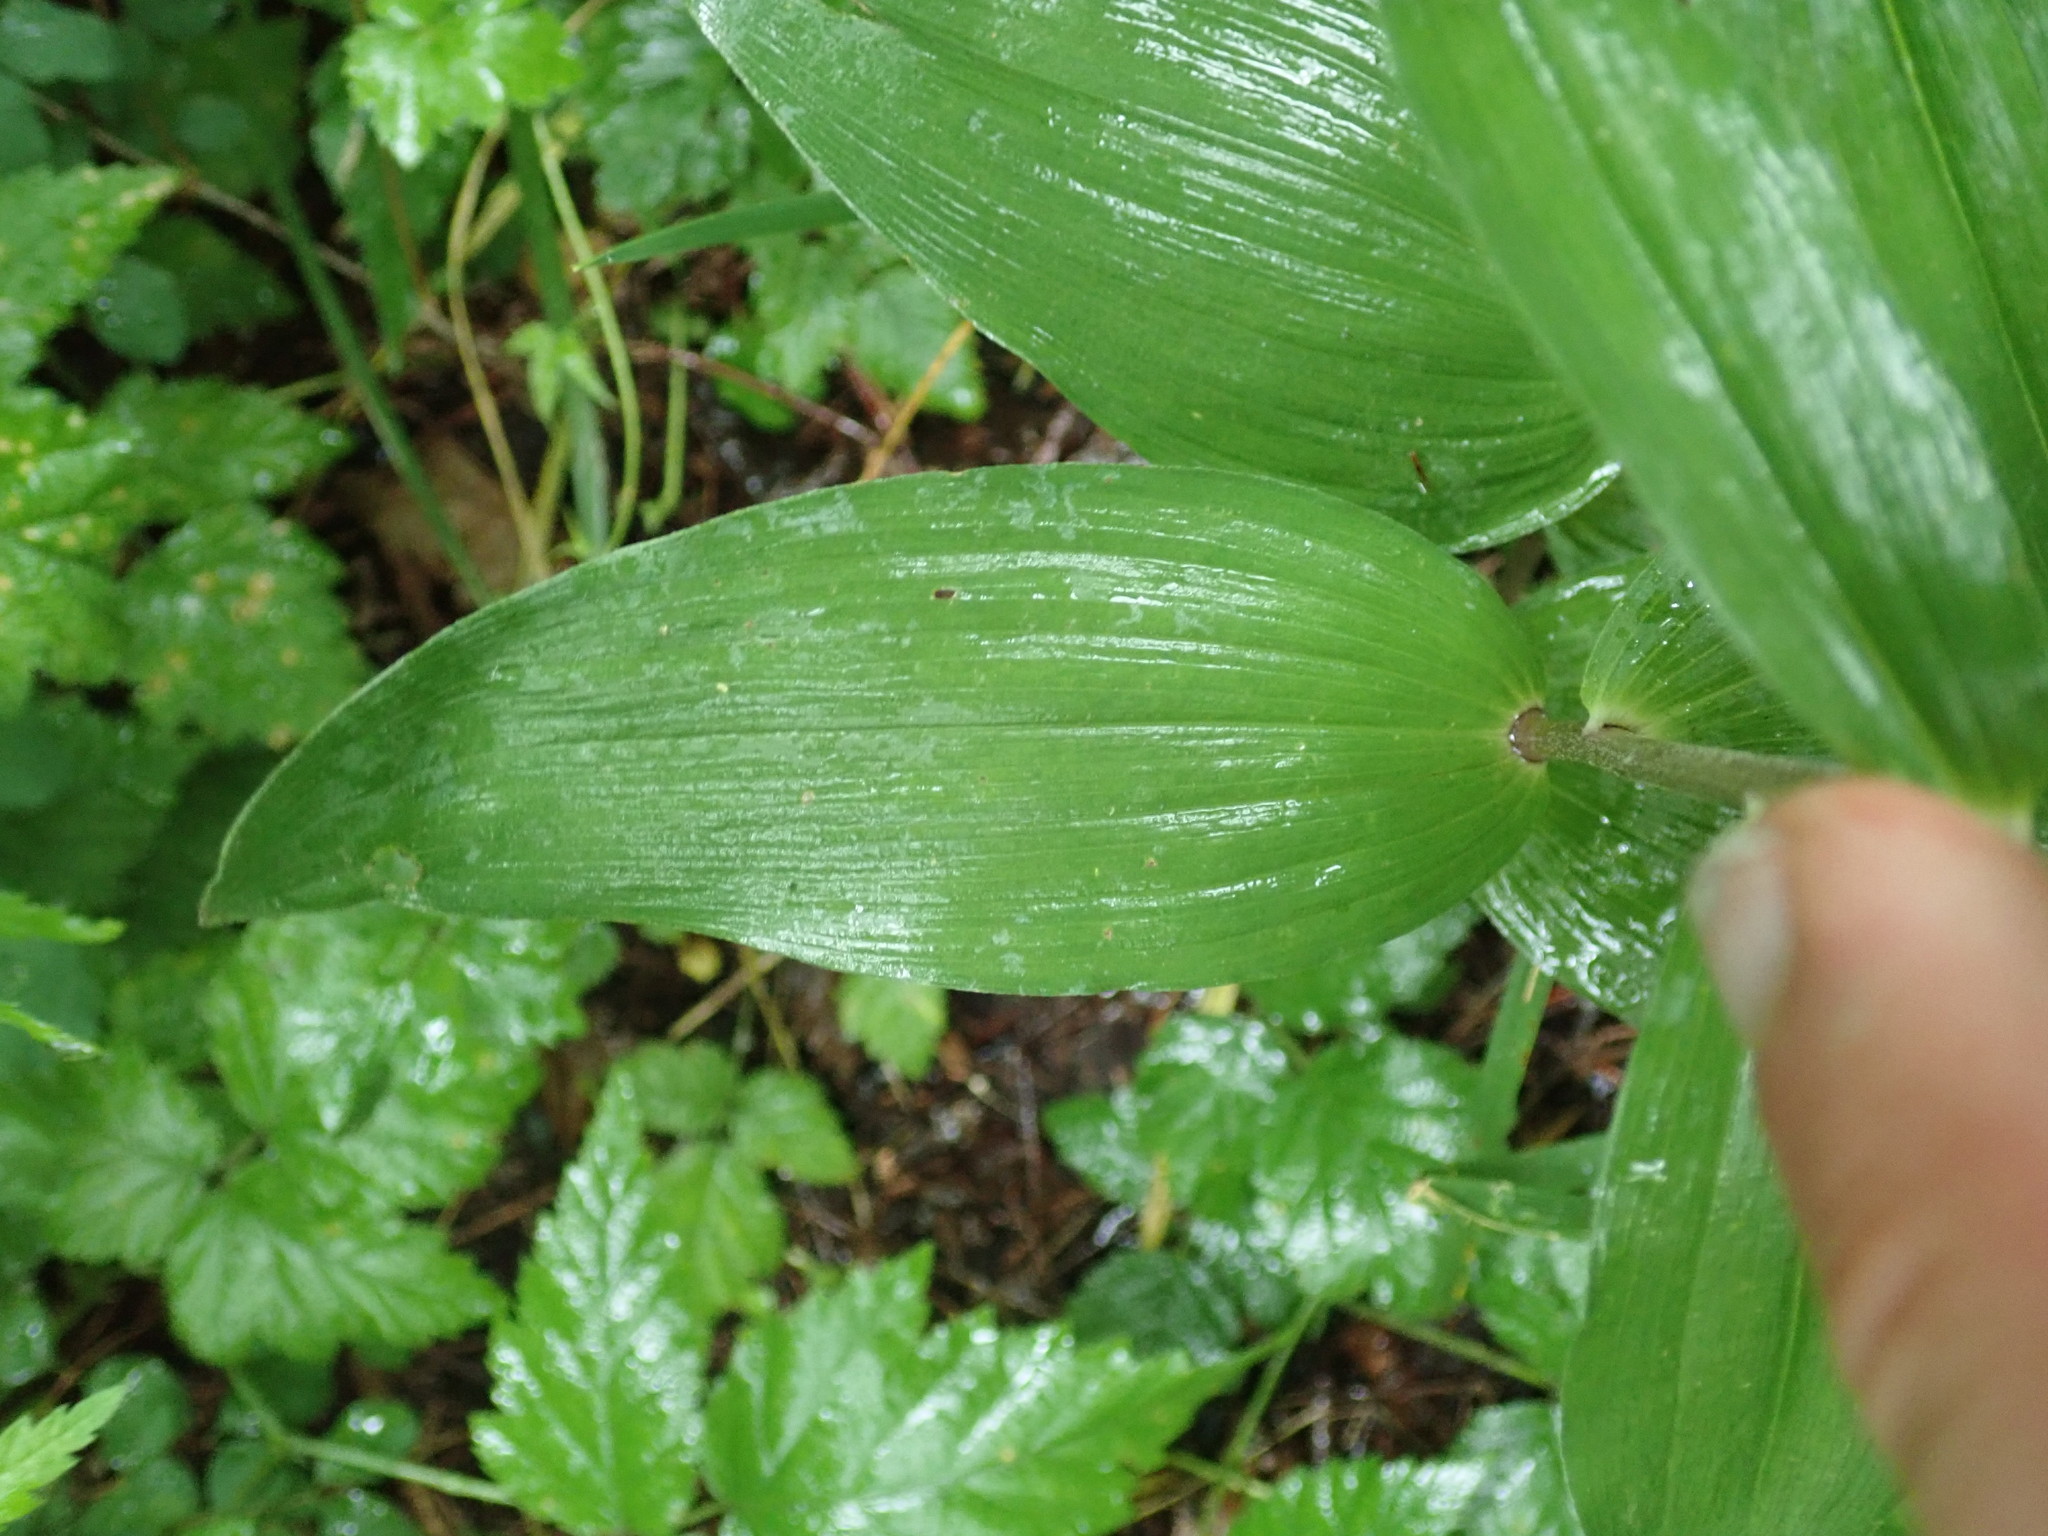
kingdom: Plantae
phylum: Tracheophyta
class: Liliopsida
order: Asparagales
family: Orchidaceae
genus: Epipactis
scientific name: Epipactis helleborine
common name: Broad-leaved helleborine
